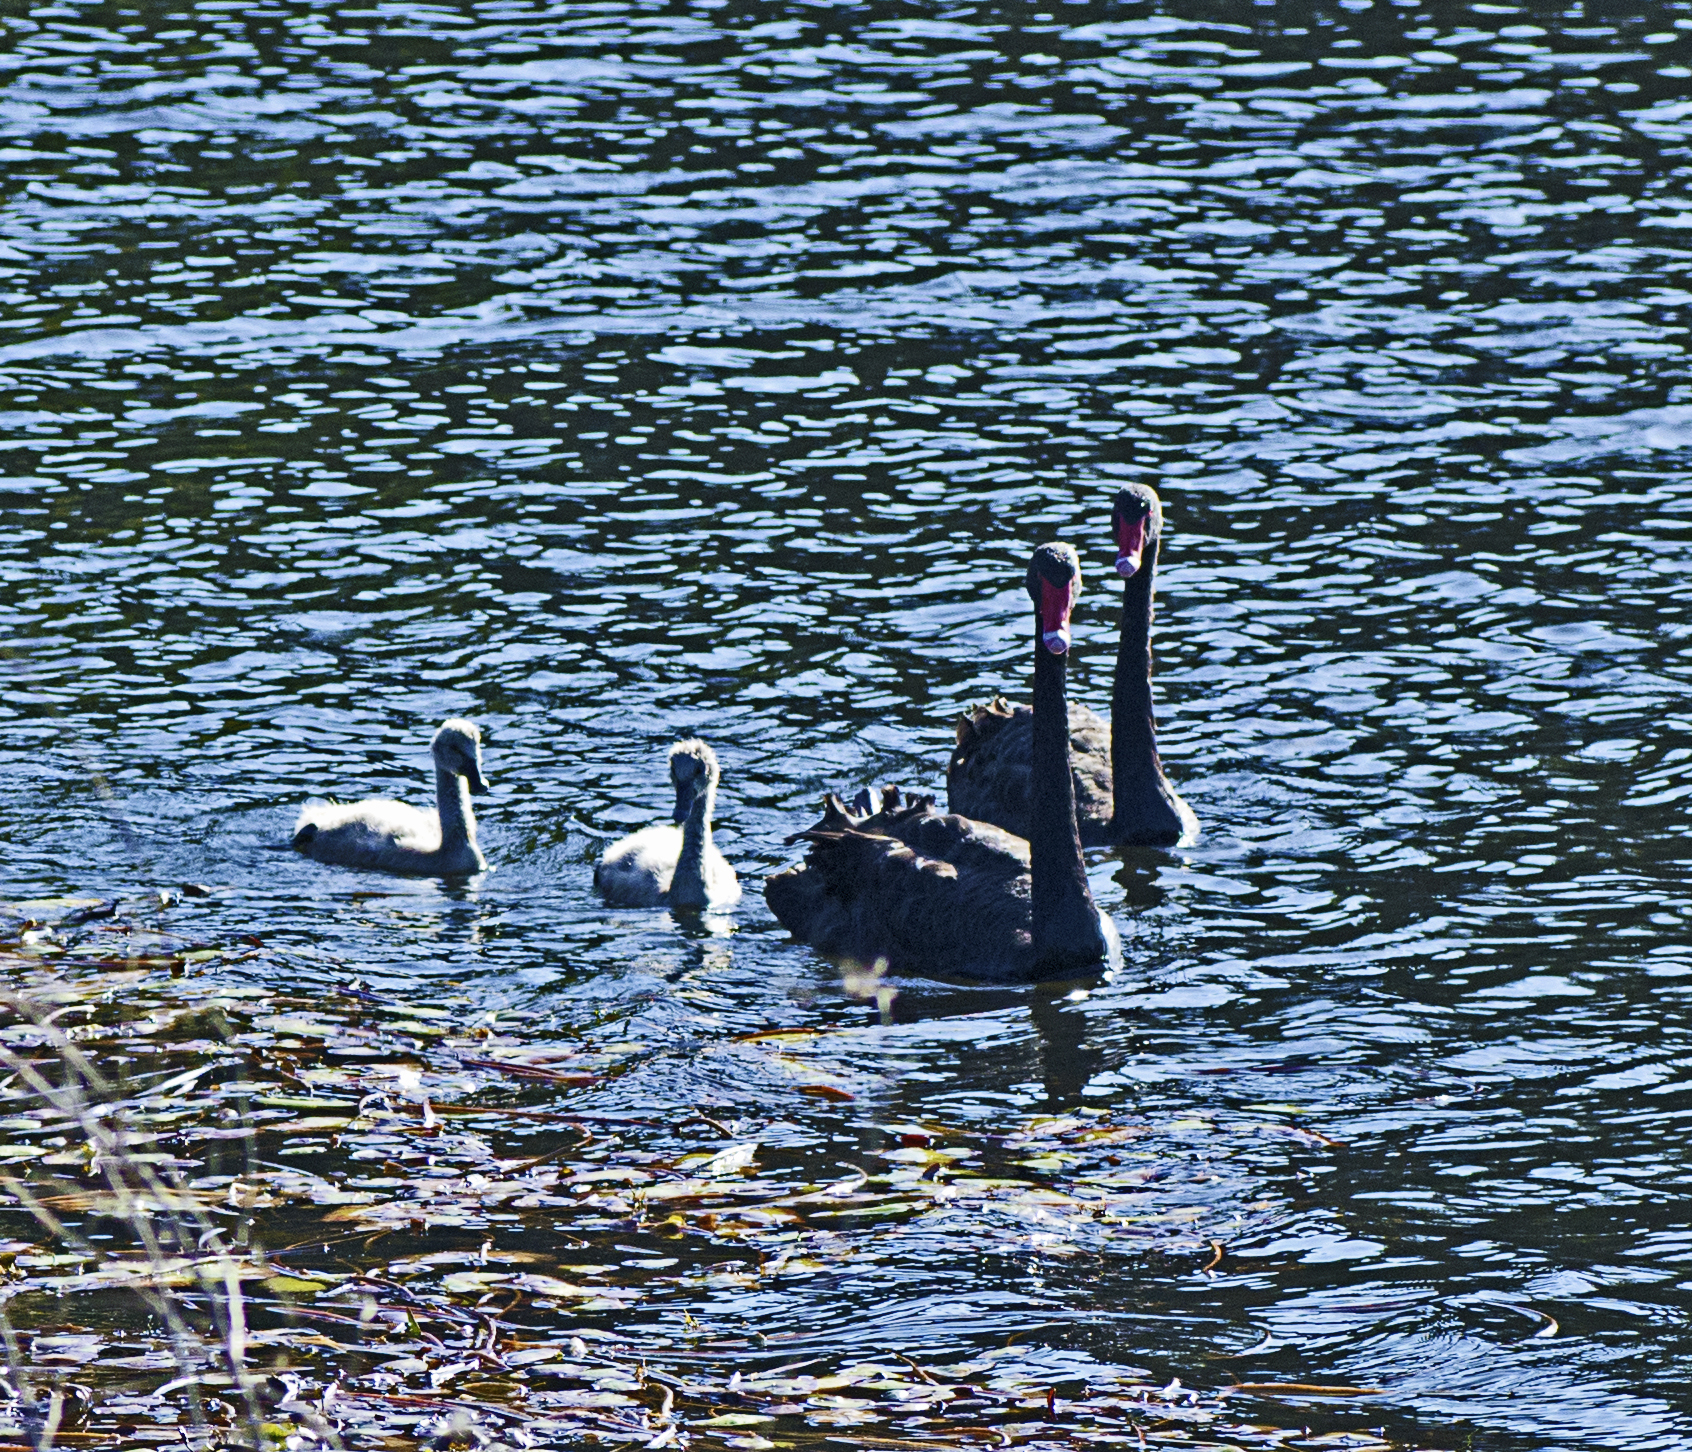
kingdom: Animalia
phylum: Chordata
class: Aves
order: Anseriformes
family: Anatidae
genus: Cygnus
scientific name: Cygnus atratus
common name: Black swan
